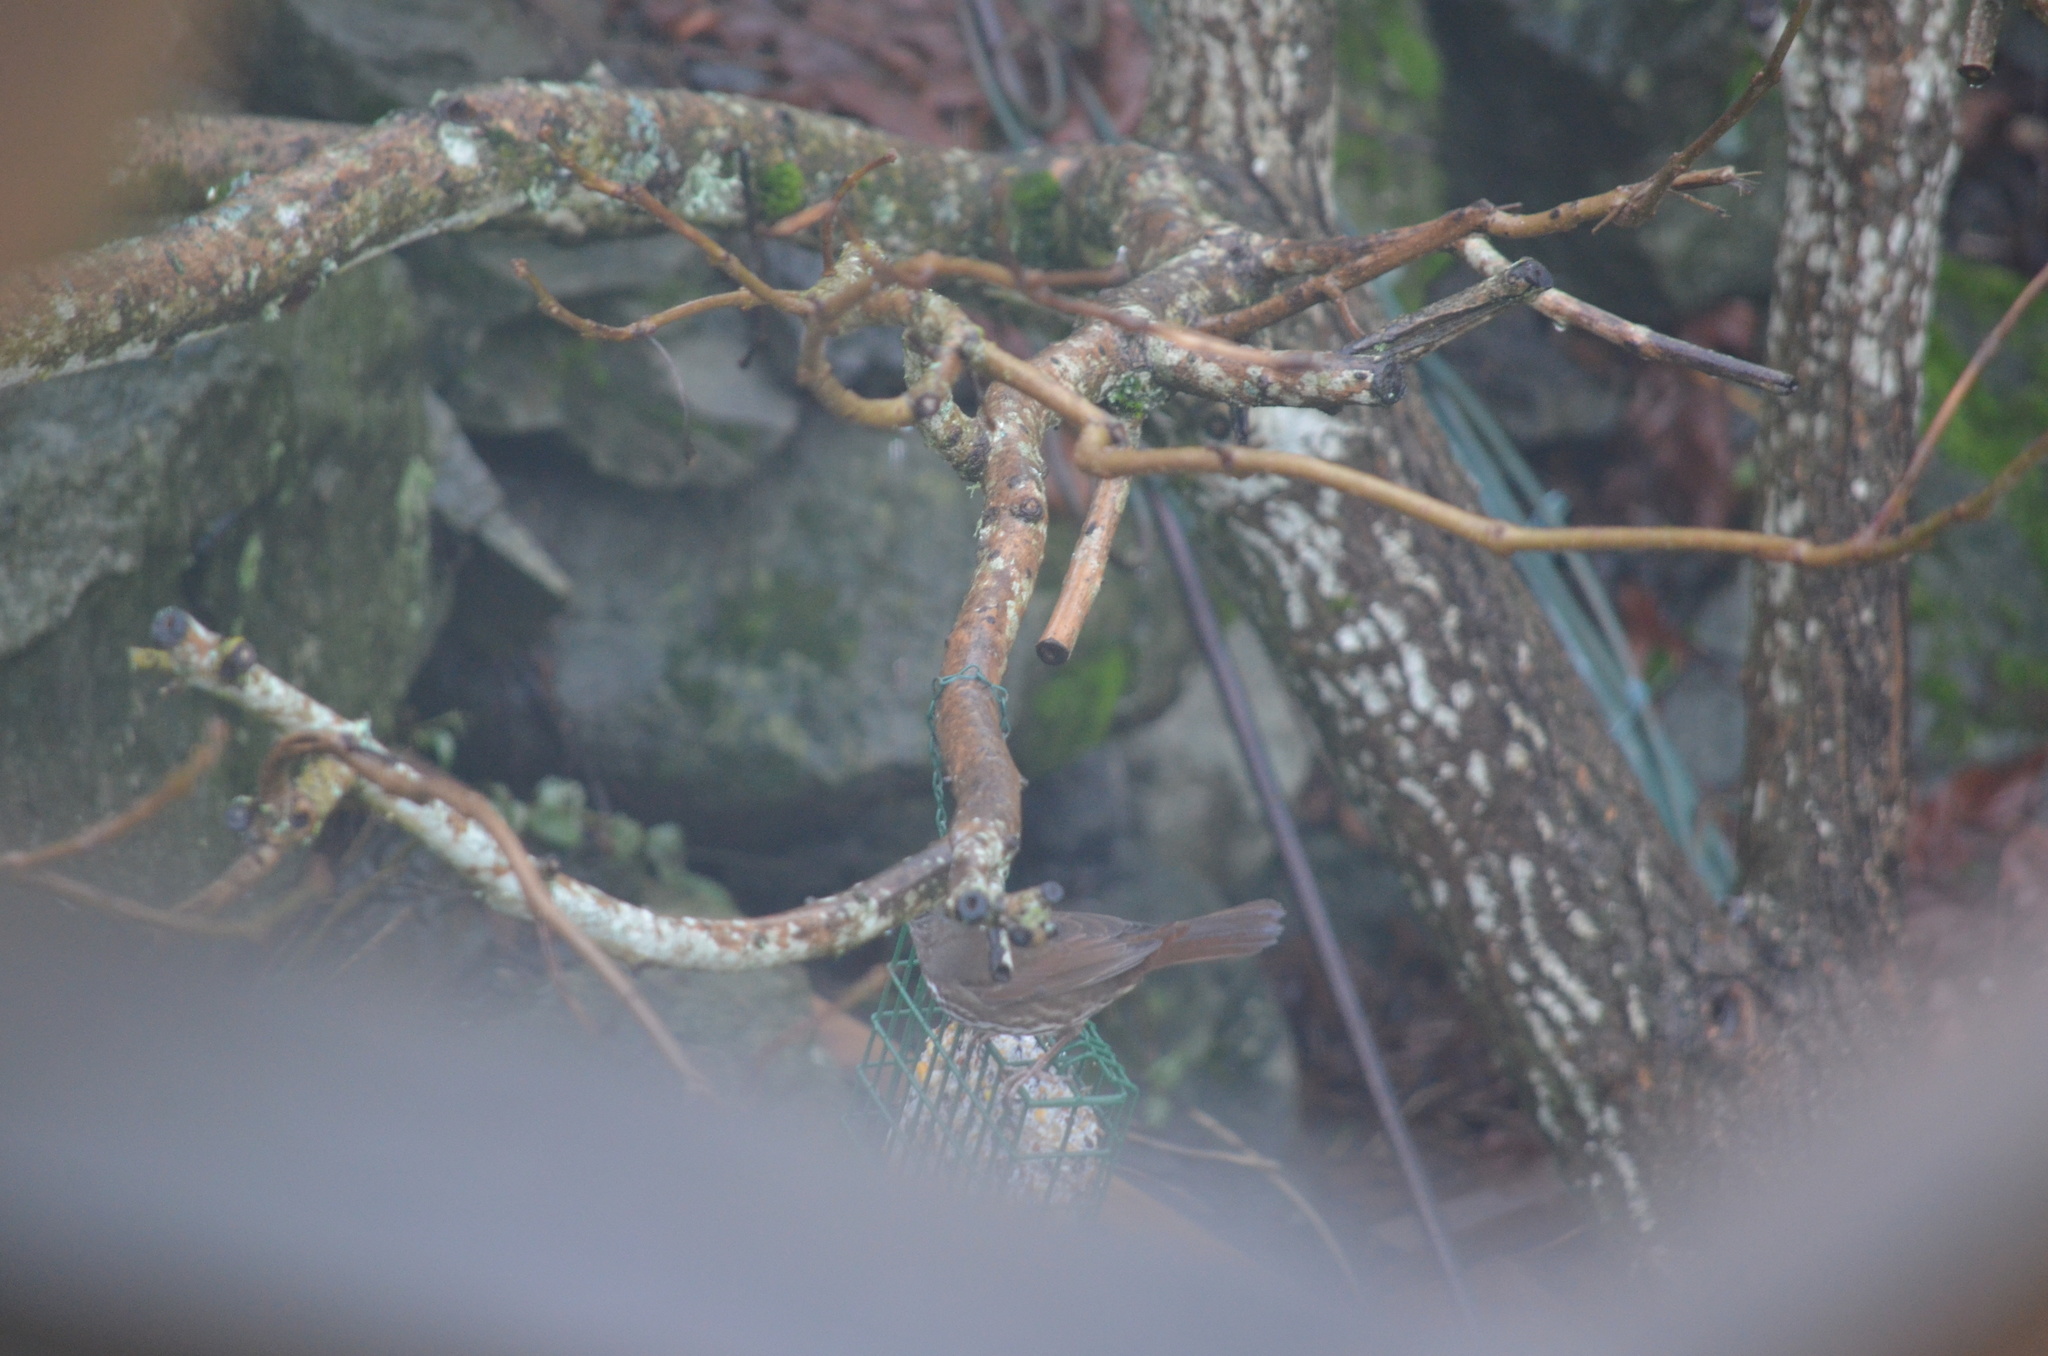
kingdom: Animalia
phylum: Chordata
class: Aves
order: Passeriformes
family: Passerellidae
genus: Passerella
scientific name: Passerella iliaca
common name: Fox sparrow
